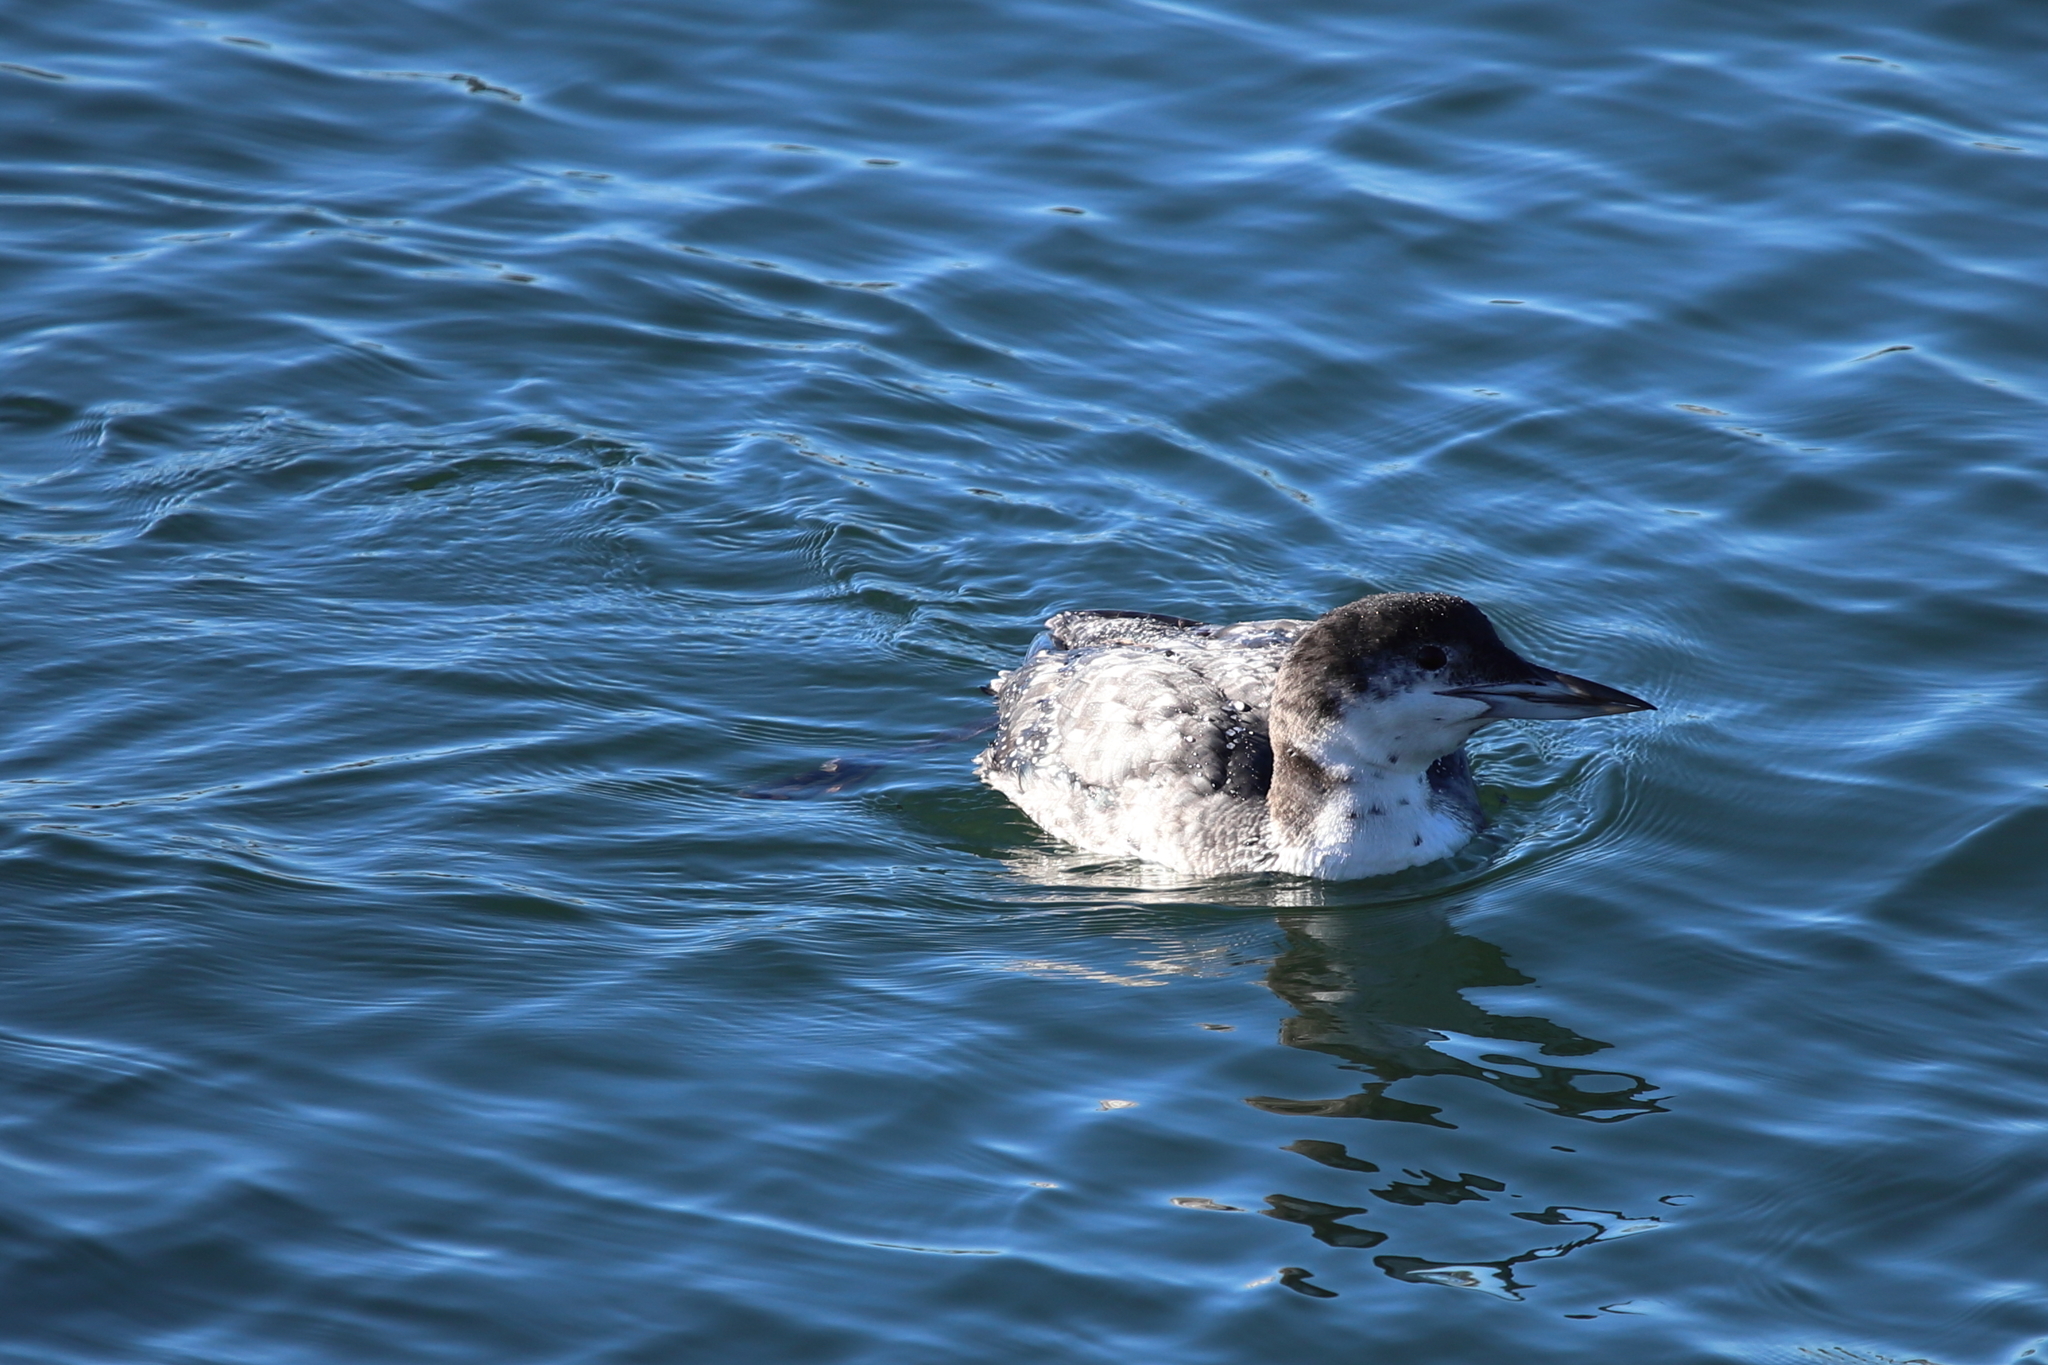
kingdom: Animalia
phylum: Chordata
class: Aves
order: Gaviiformes
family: Gaviidae
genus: Gavia
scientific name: Gavia immer
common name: Common loon
